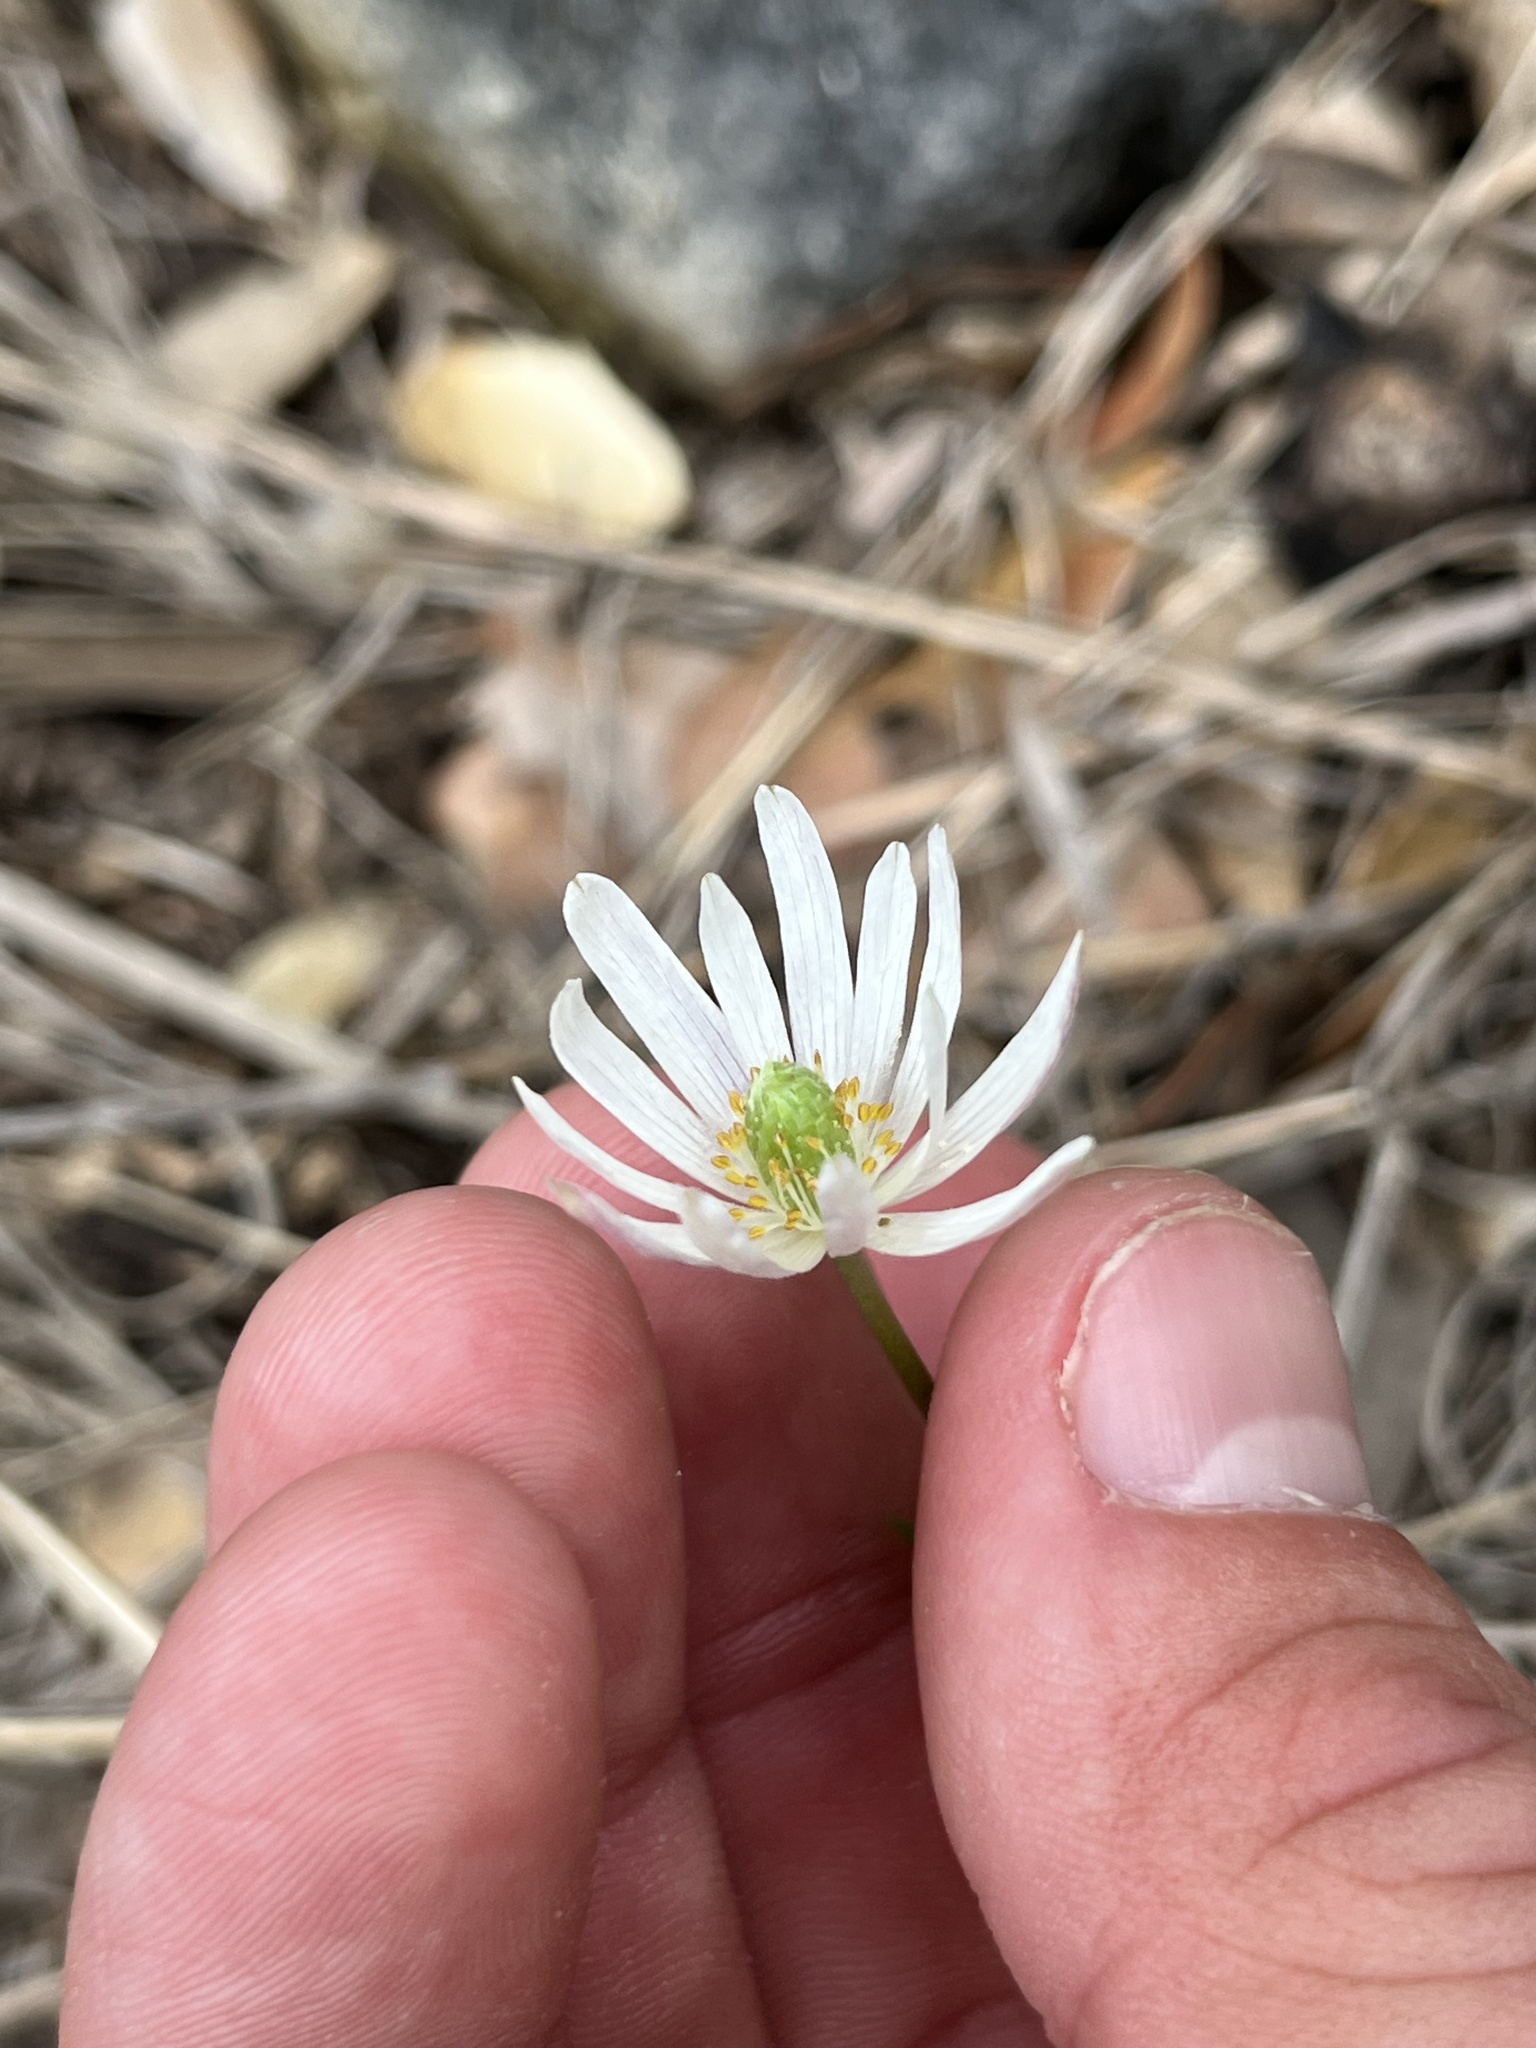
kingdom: Plantae
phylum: Tracheophyta
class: Magnoliopsida
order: Ranunculales
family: Ranunculaceae
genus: Anemone
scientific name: Anemone berlandieri
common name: Ten-petal anemone
